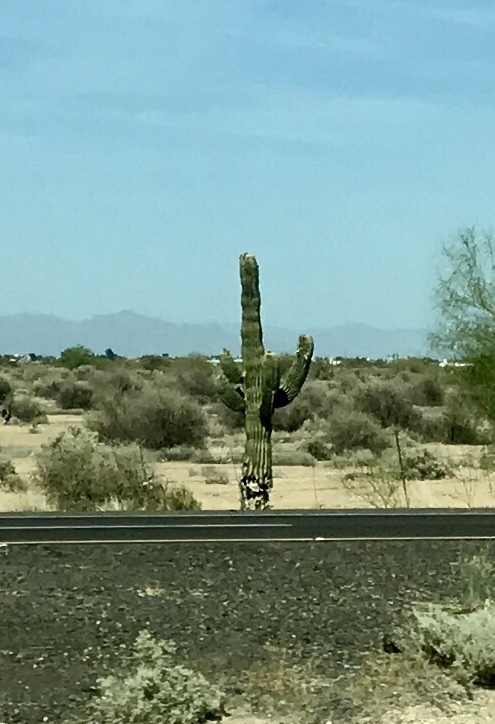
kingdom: Plantae
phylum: Tracheophyta
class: Magnoliopsida
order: Caryophyllales
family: Cactaceae
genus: Carnegiea
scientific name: Carnegiea gigantea
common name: Saguaro
